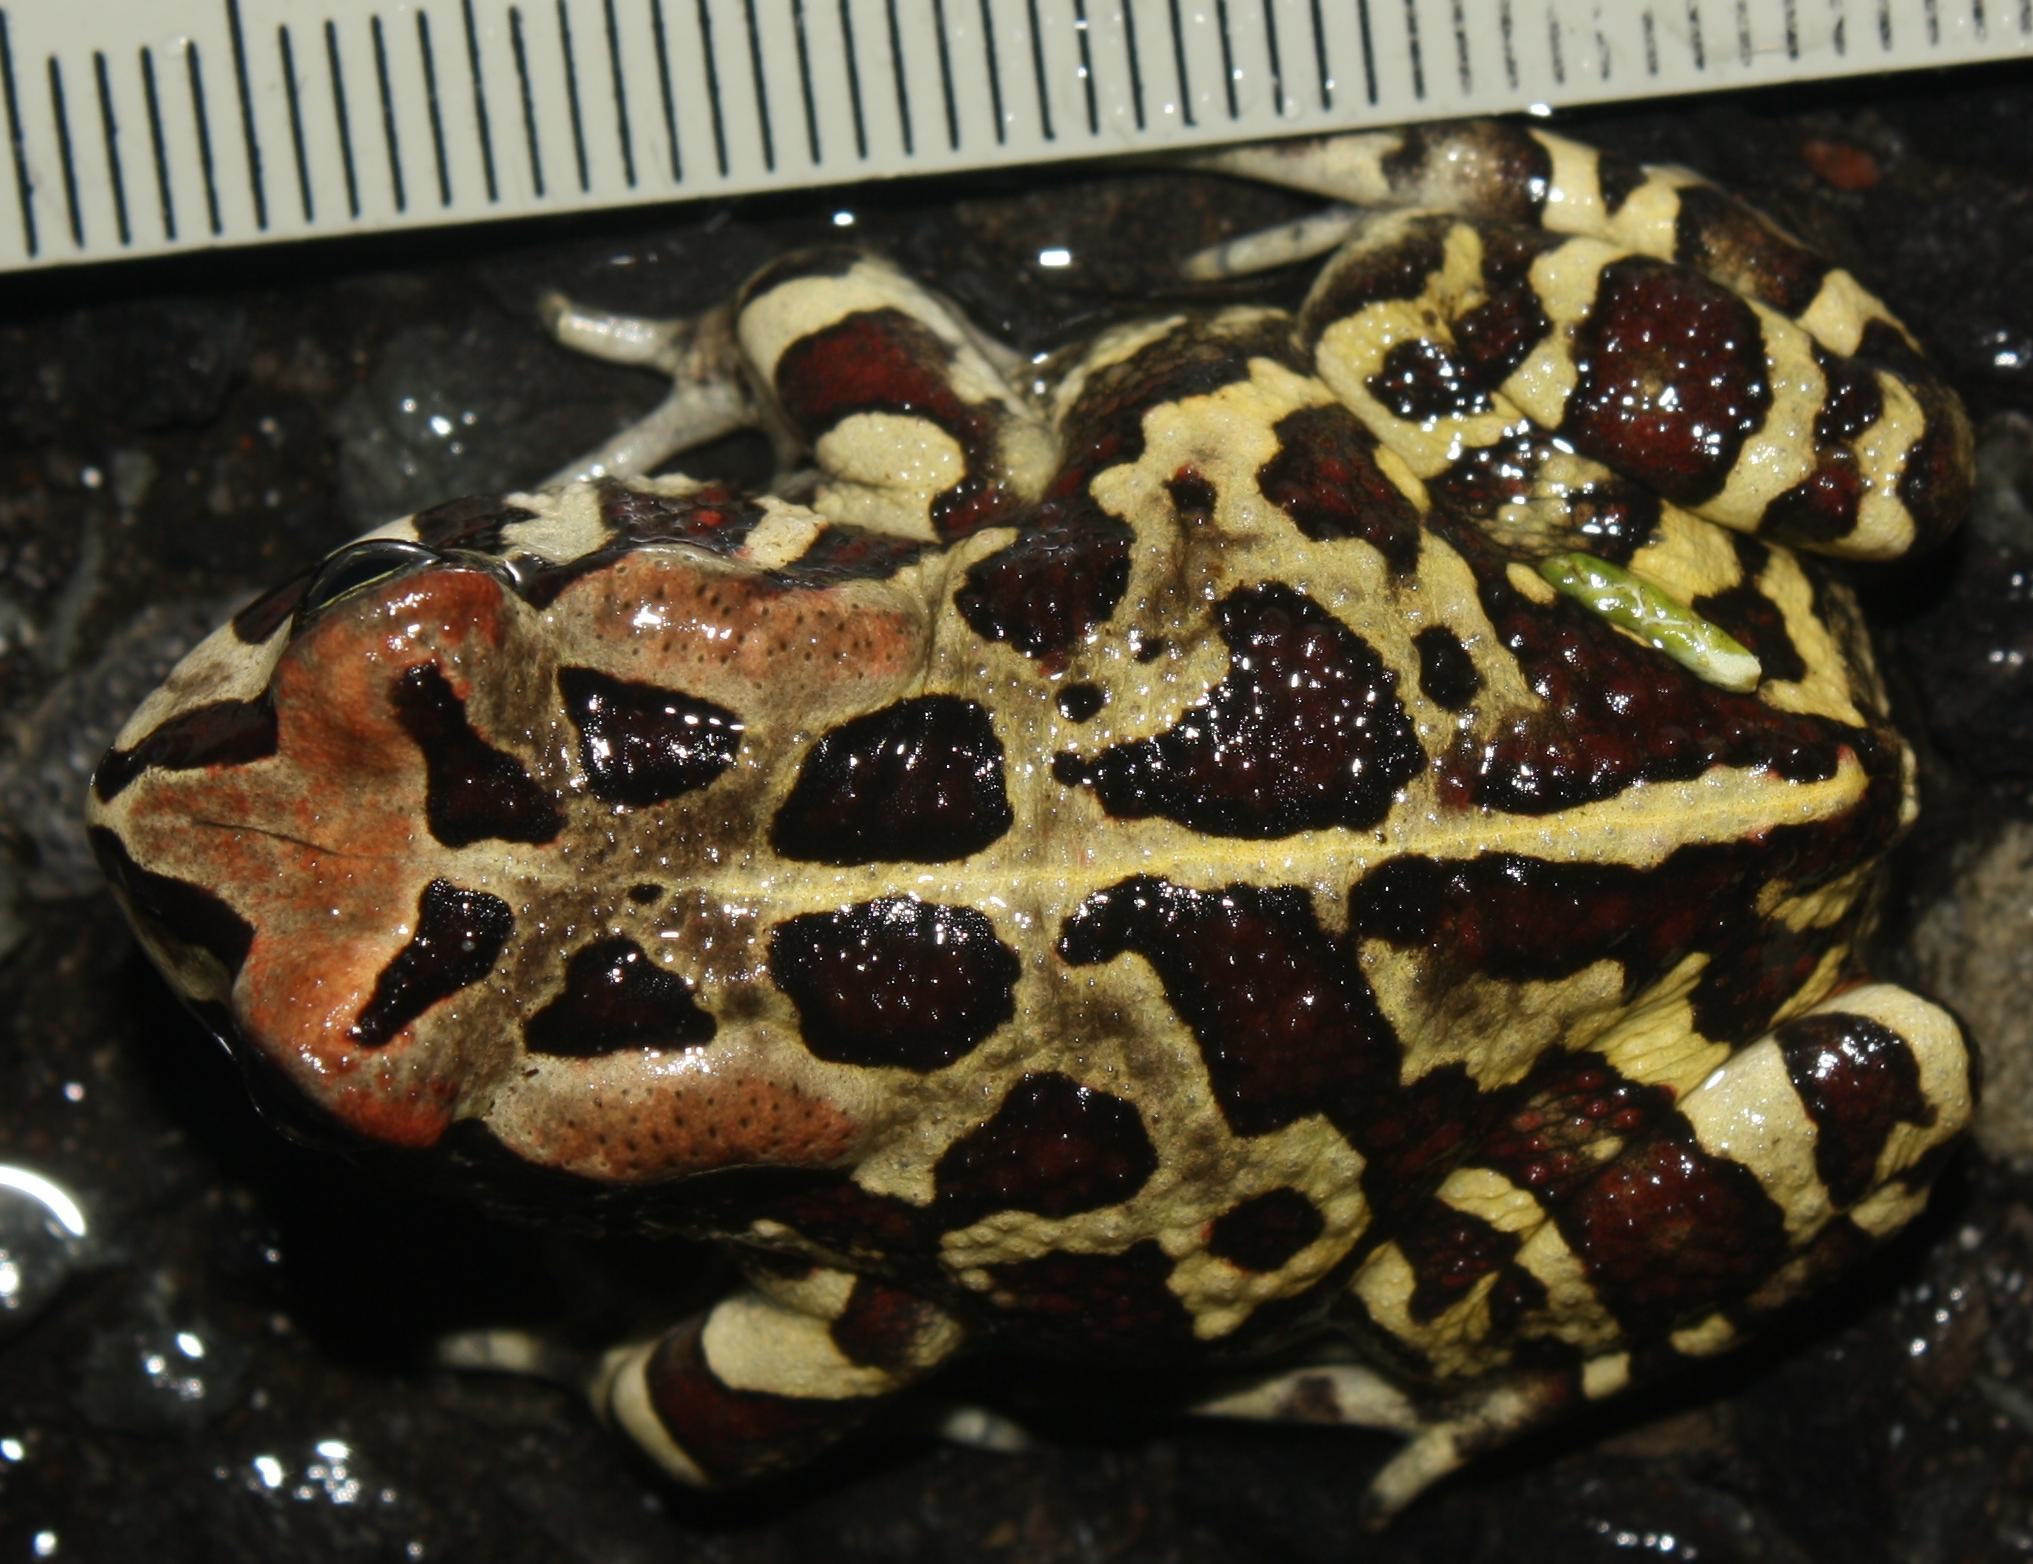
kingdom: Animalia
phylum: Chordata
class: Amphibia
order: Anura
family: Bufonidae
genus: Sclerophrys
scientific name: Sclerophrys pantherina
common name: Panther toad
